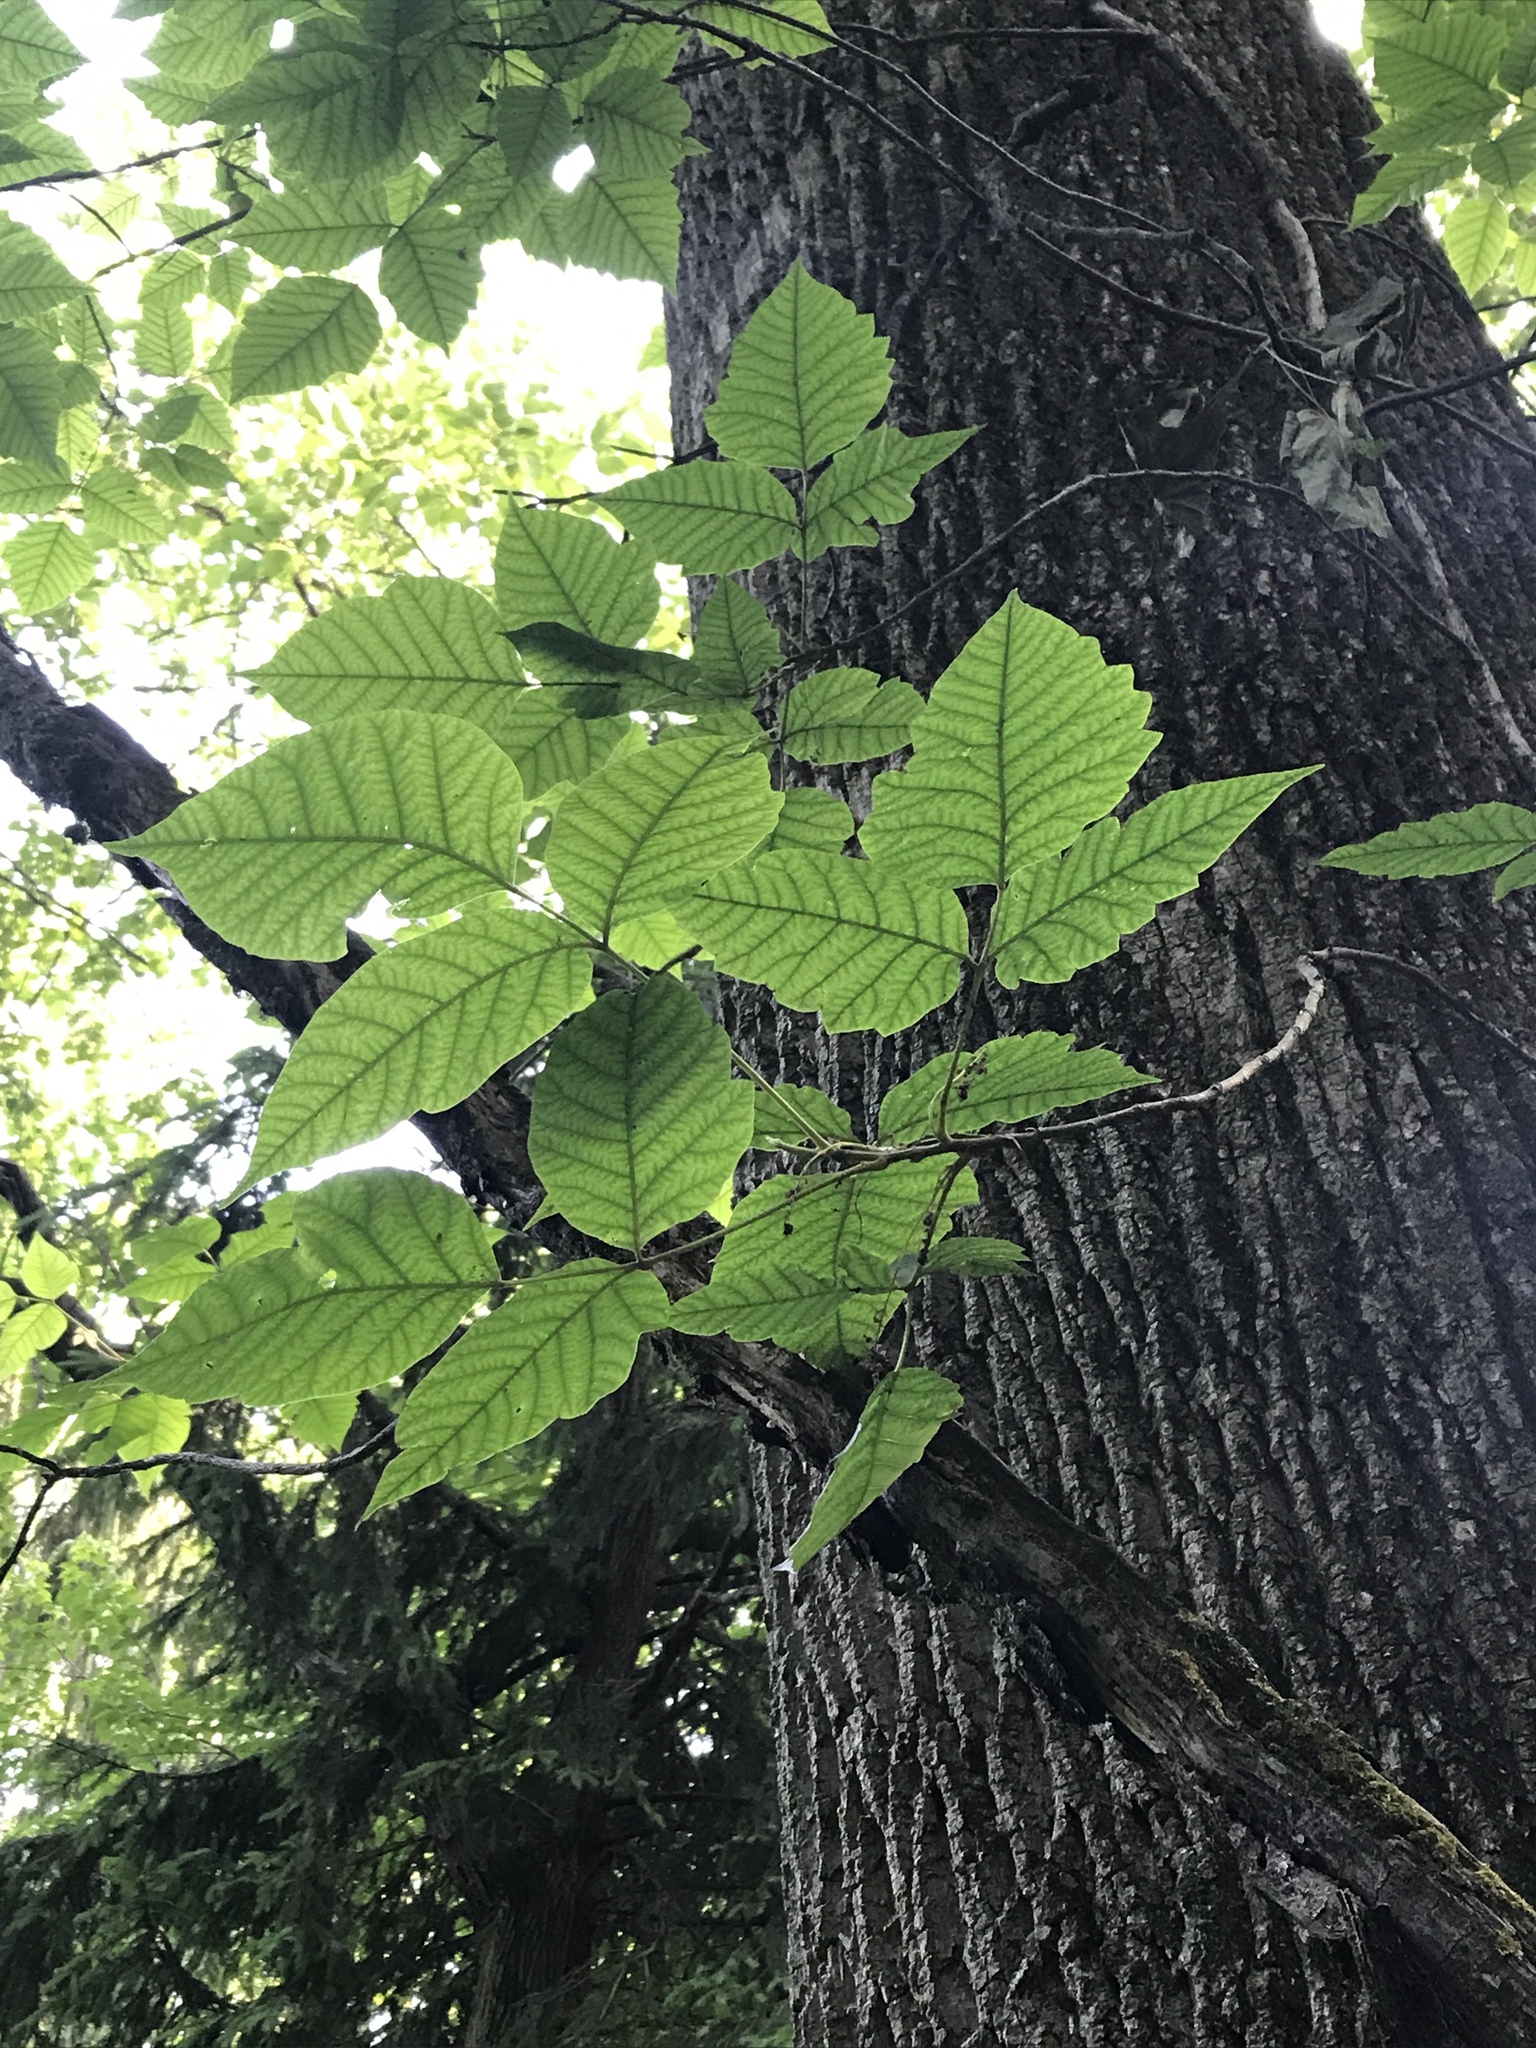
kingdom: Plantae
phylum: Tracheophyta
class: Magnoliopsida
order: Sapindales
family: Anacardiaceae
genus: Toxicodendron
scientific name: Toxicodendron radicans
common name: Poison ivy
